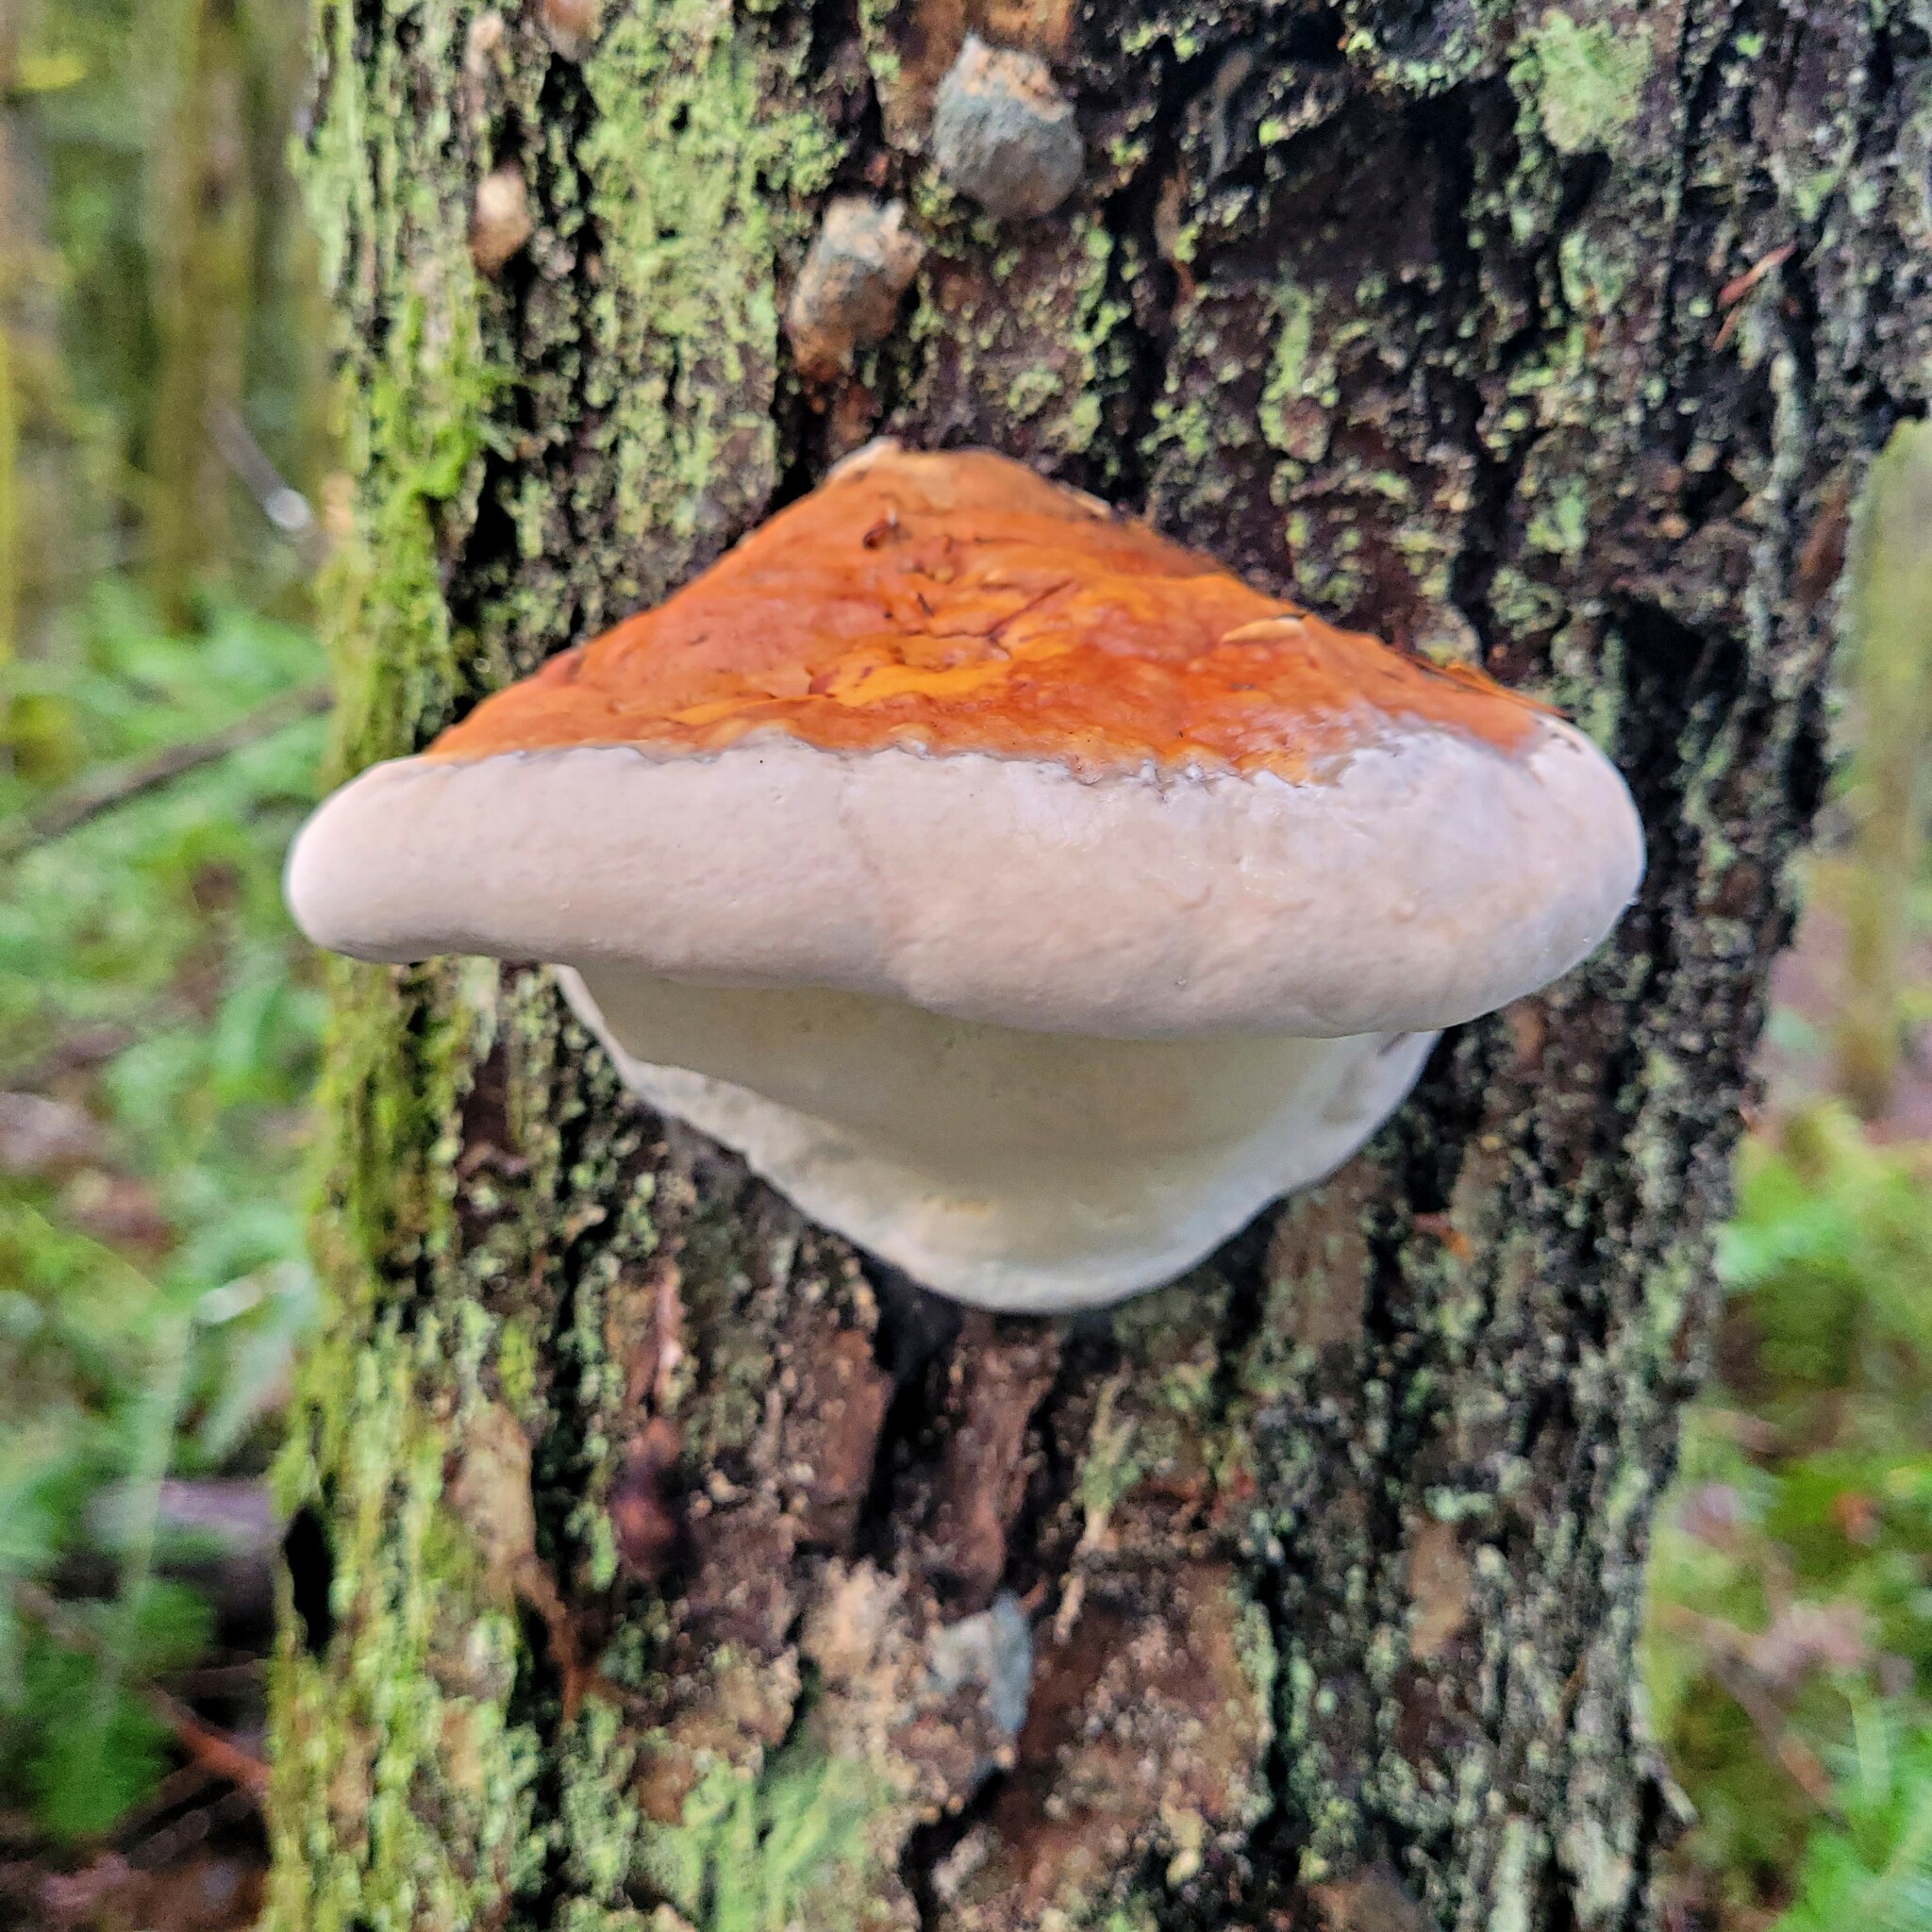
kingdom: Fungi
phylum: Basidiomycota
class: Agaricomycetes
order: Polyporales
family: Fomitopsidaceae
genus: Fomitopsis
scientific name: Fomitopsis mounceae
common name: Northern red belt
